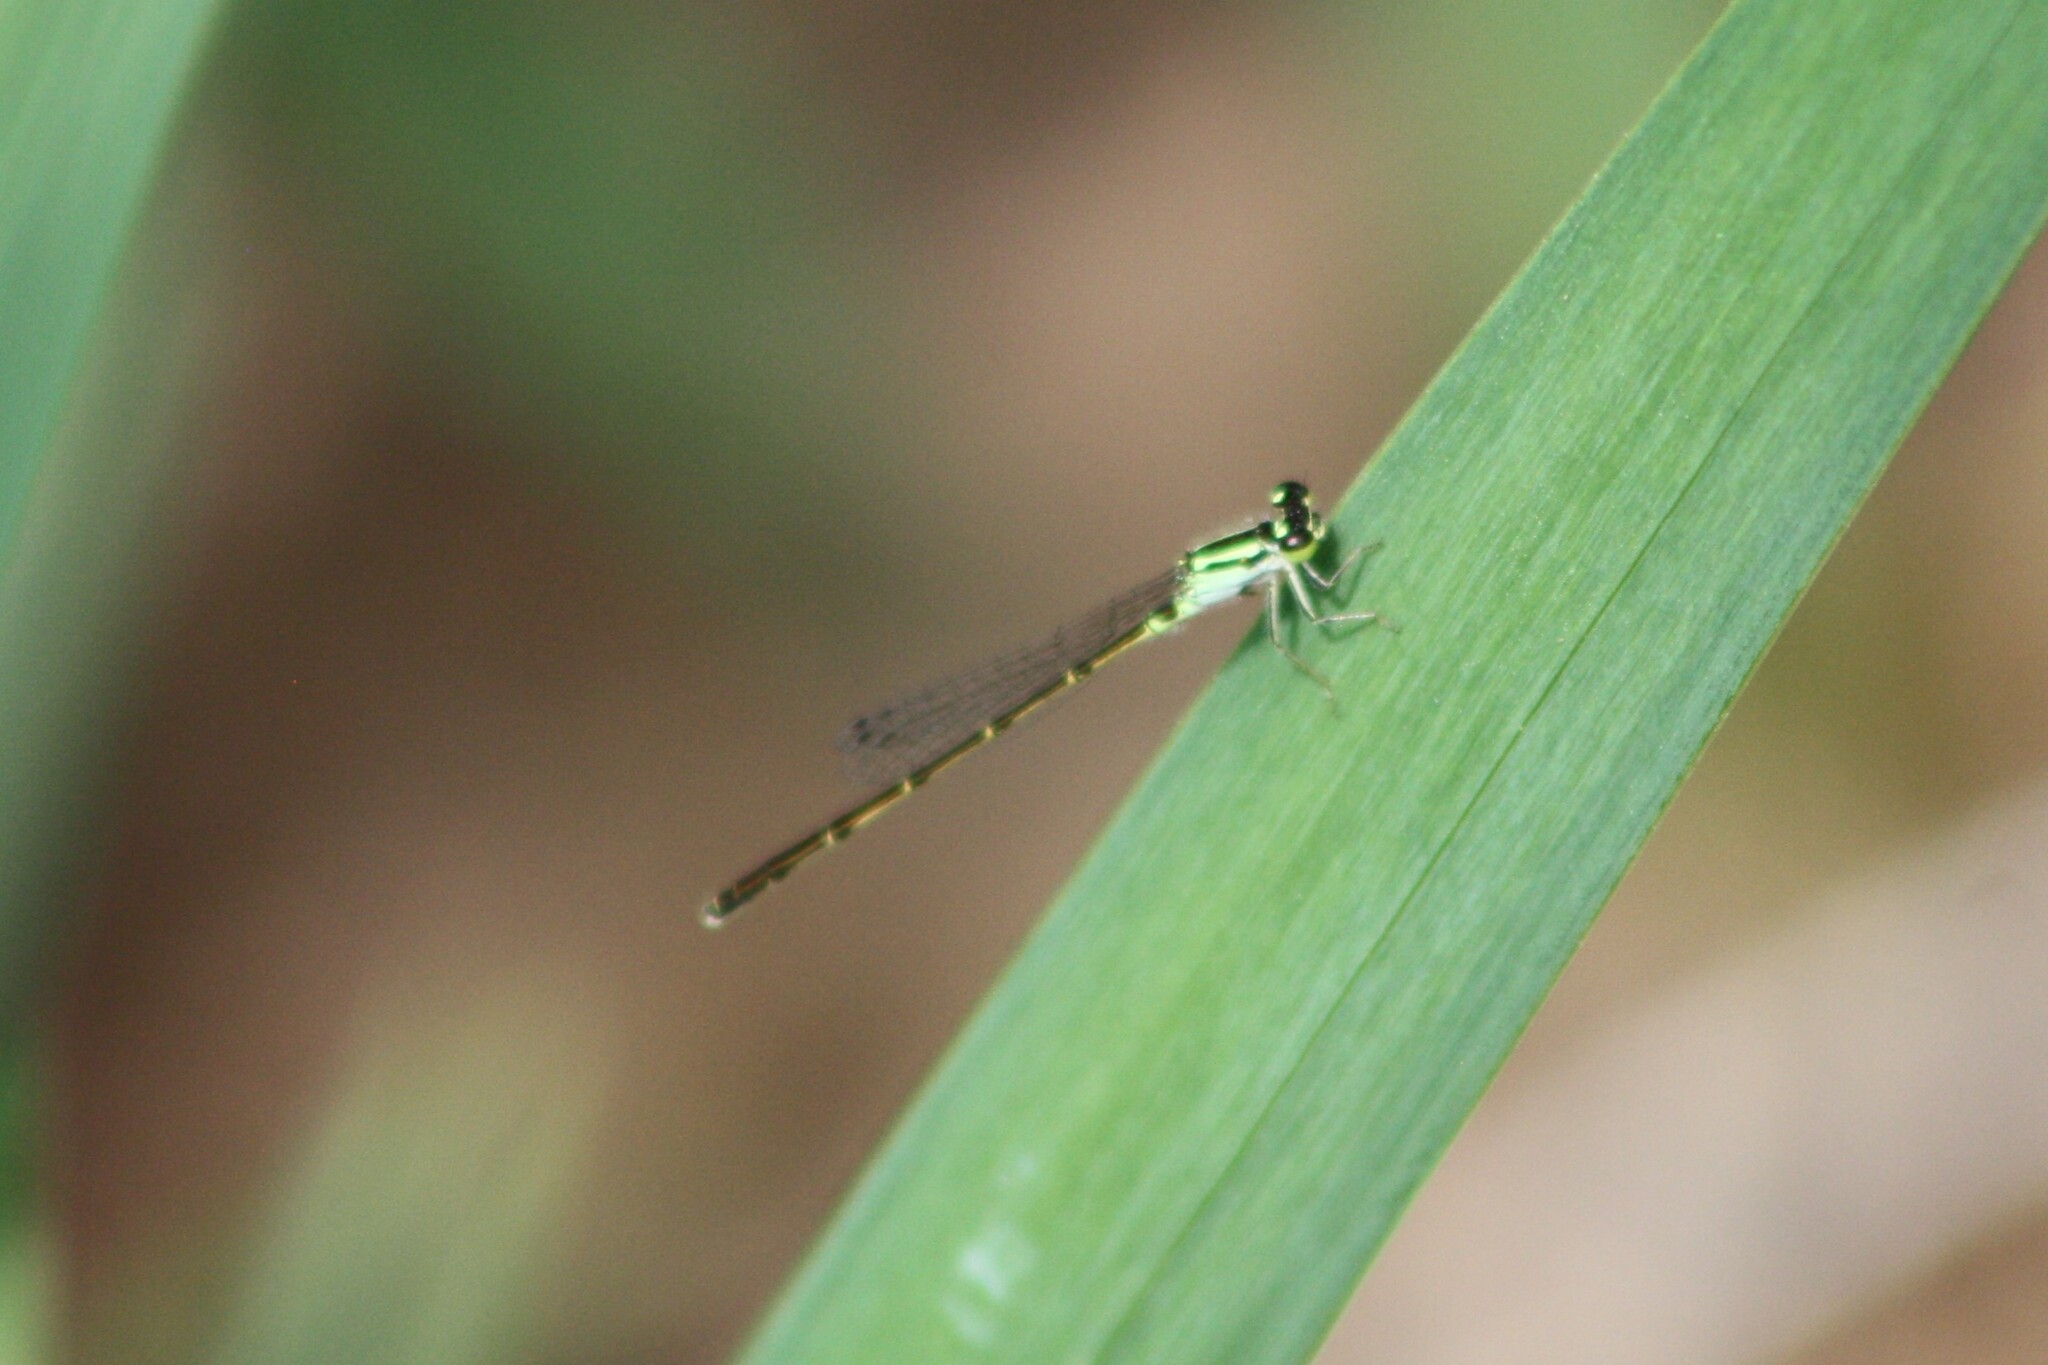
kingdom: Animalia
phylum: Arthropoda
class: Insecta
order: Odonata
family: Coenagrionidae
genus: Ischnura
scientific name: Ischnura posita
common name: Fragile forktail
